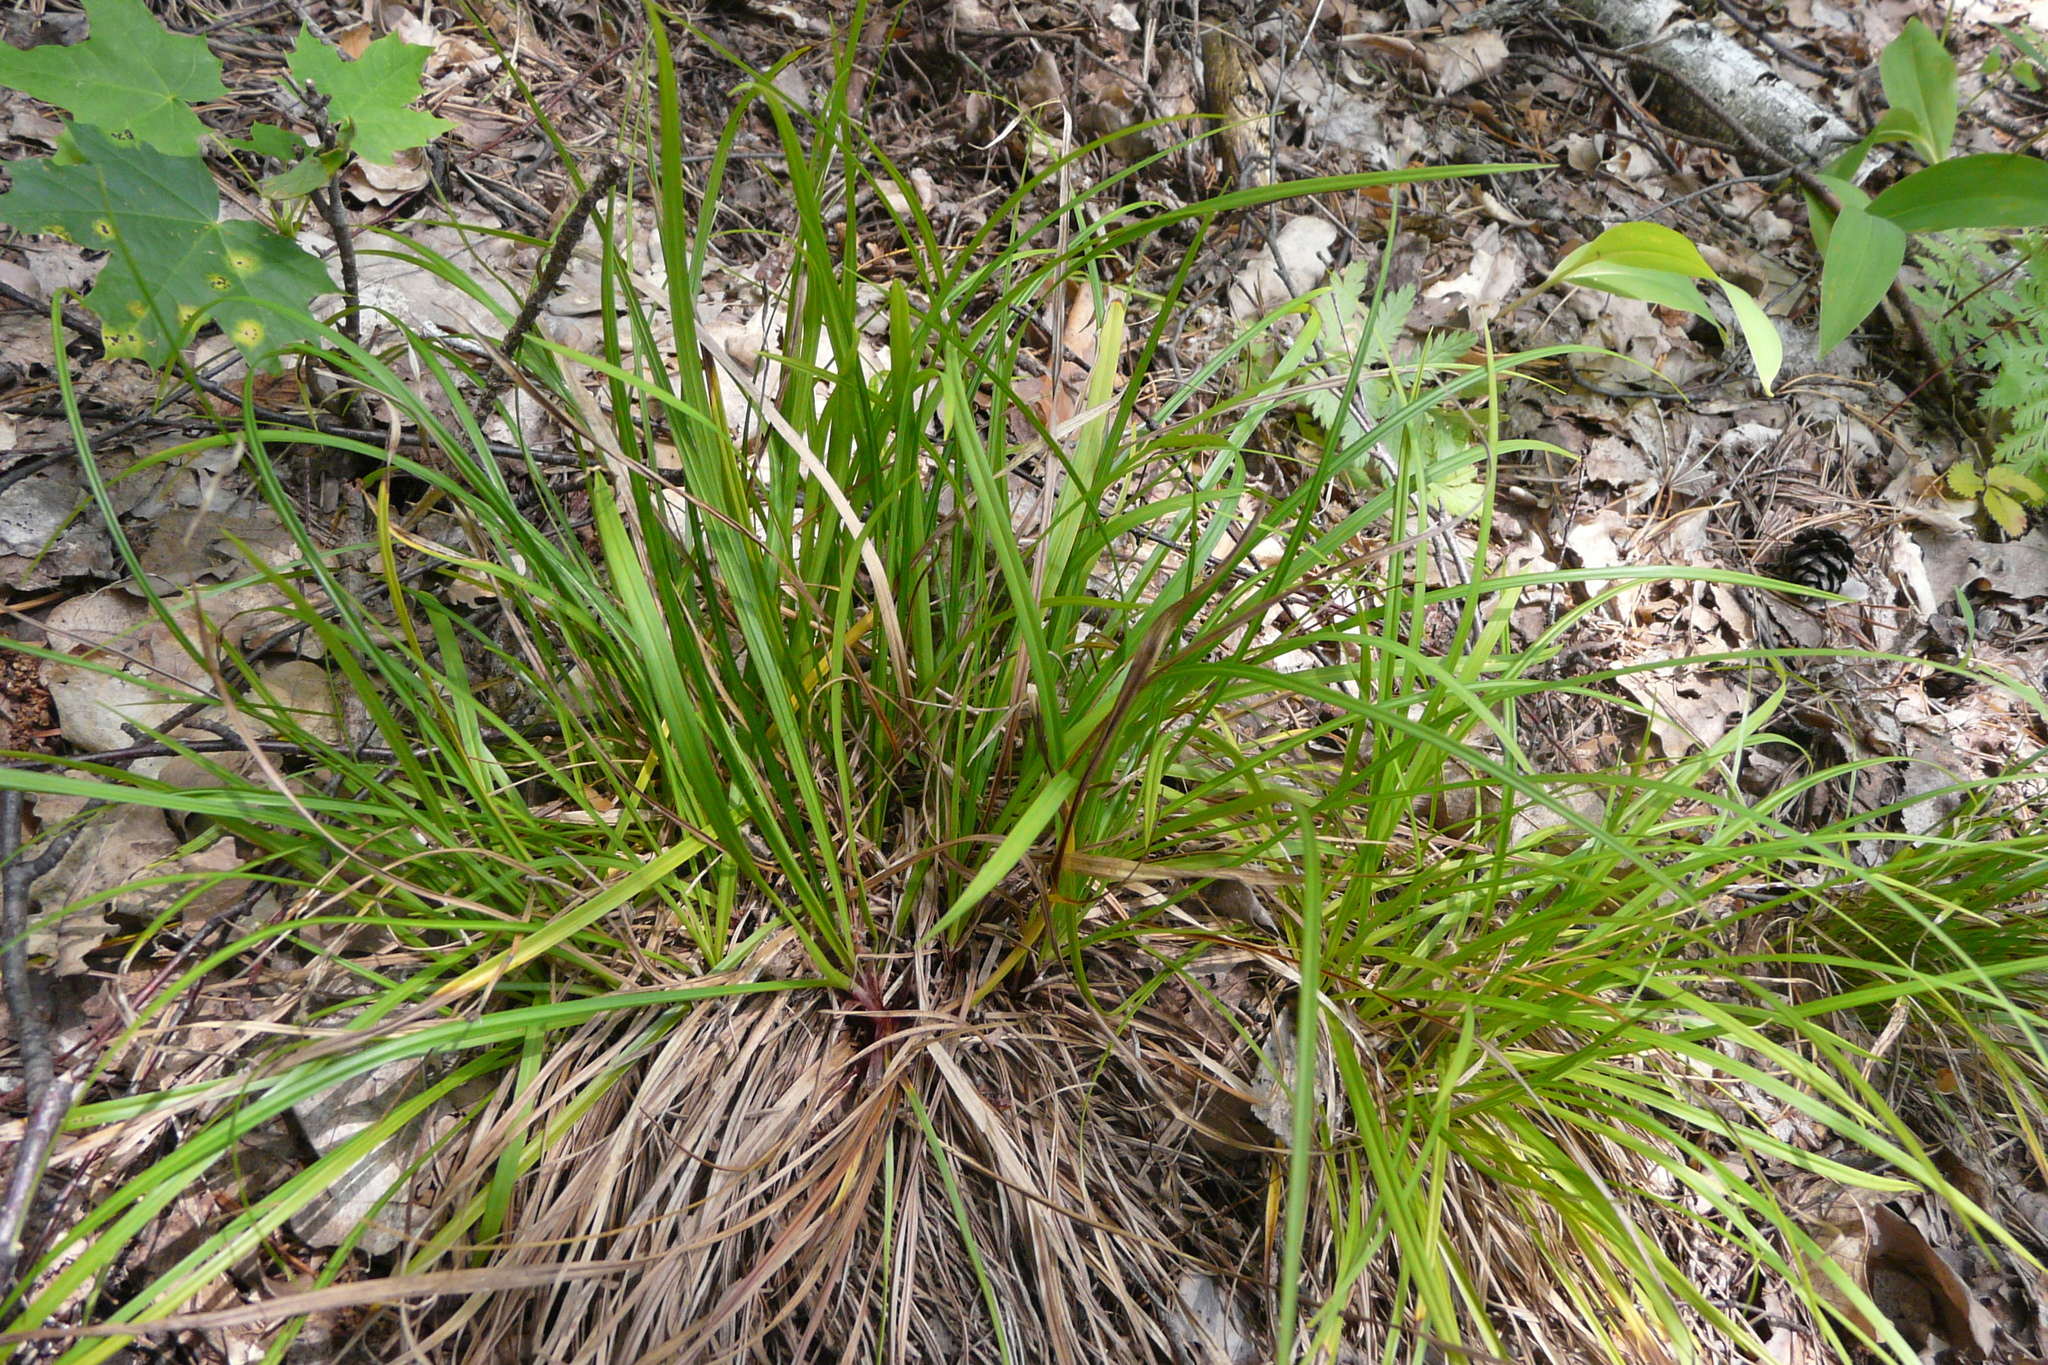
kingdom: Plantae
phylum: Tracheophyta
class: Liliopsida
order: Poales
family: Cyperaceae
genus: Carex
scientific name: Carex digitata
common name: Fingered sedge
